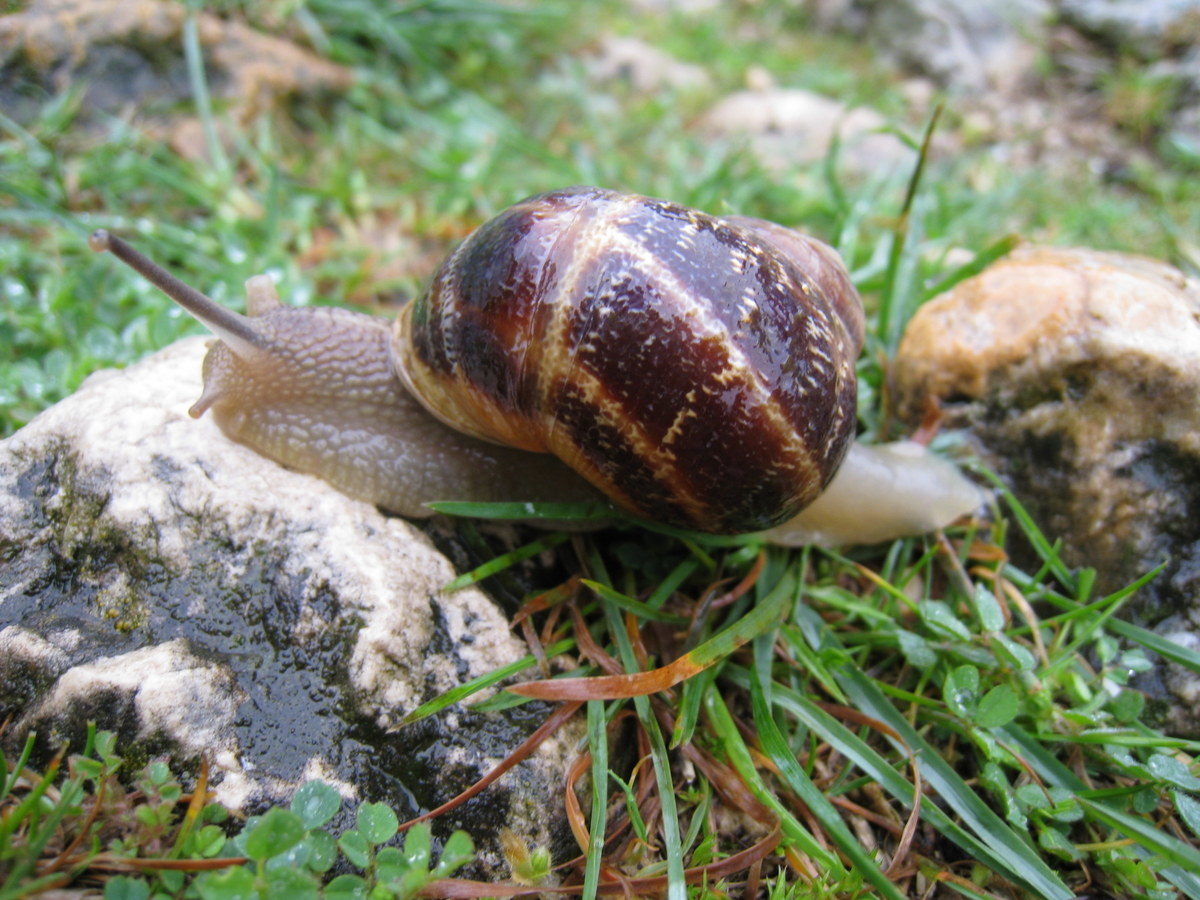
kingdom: Animalia
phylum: Mollusca
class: Gastropoda
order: Stylommatophora
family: Helicidae
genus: Cornu
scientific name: Cornu aspersum
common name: Brown garden snail
